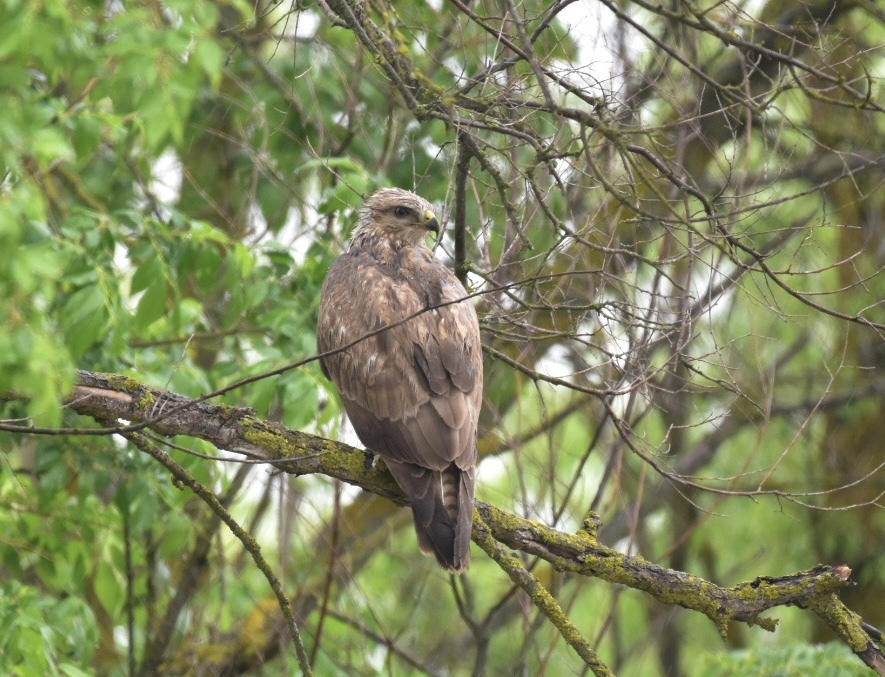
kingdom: Animalia
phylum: Chordata
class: Aves
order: Accipitriformes
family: Accipitridae
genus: Buteo
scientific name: Buteo buteo
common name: Common buzzard
